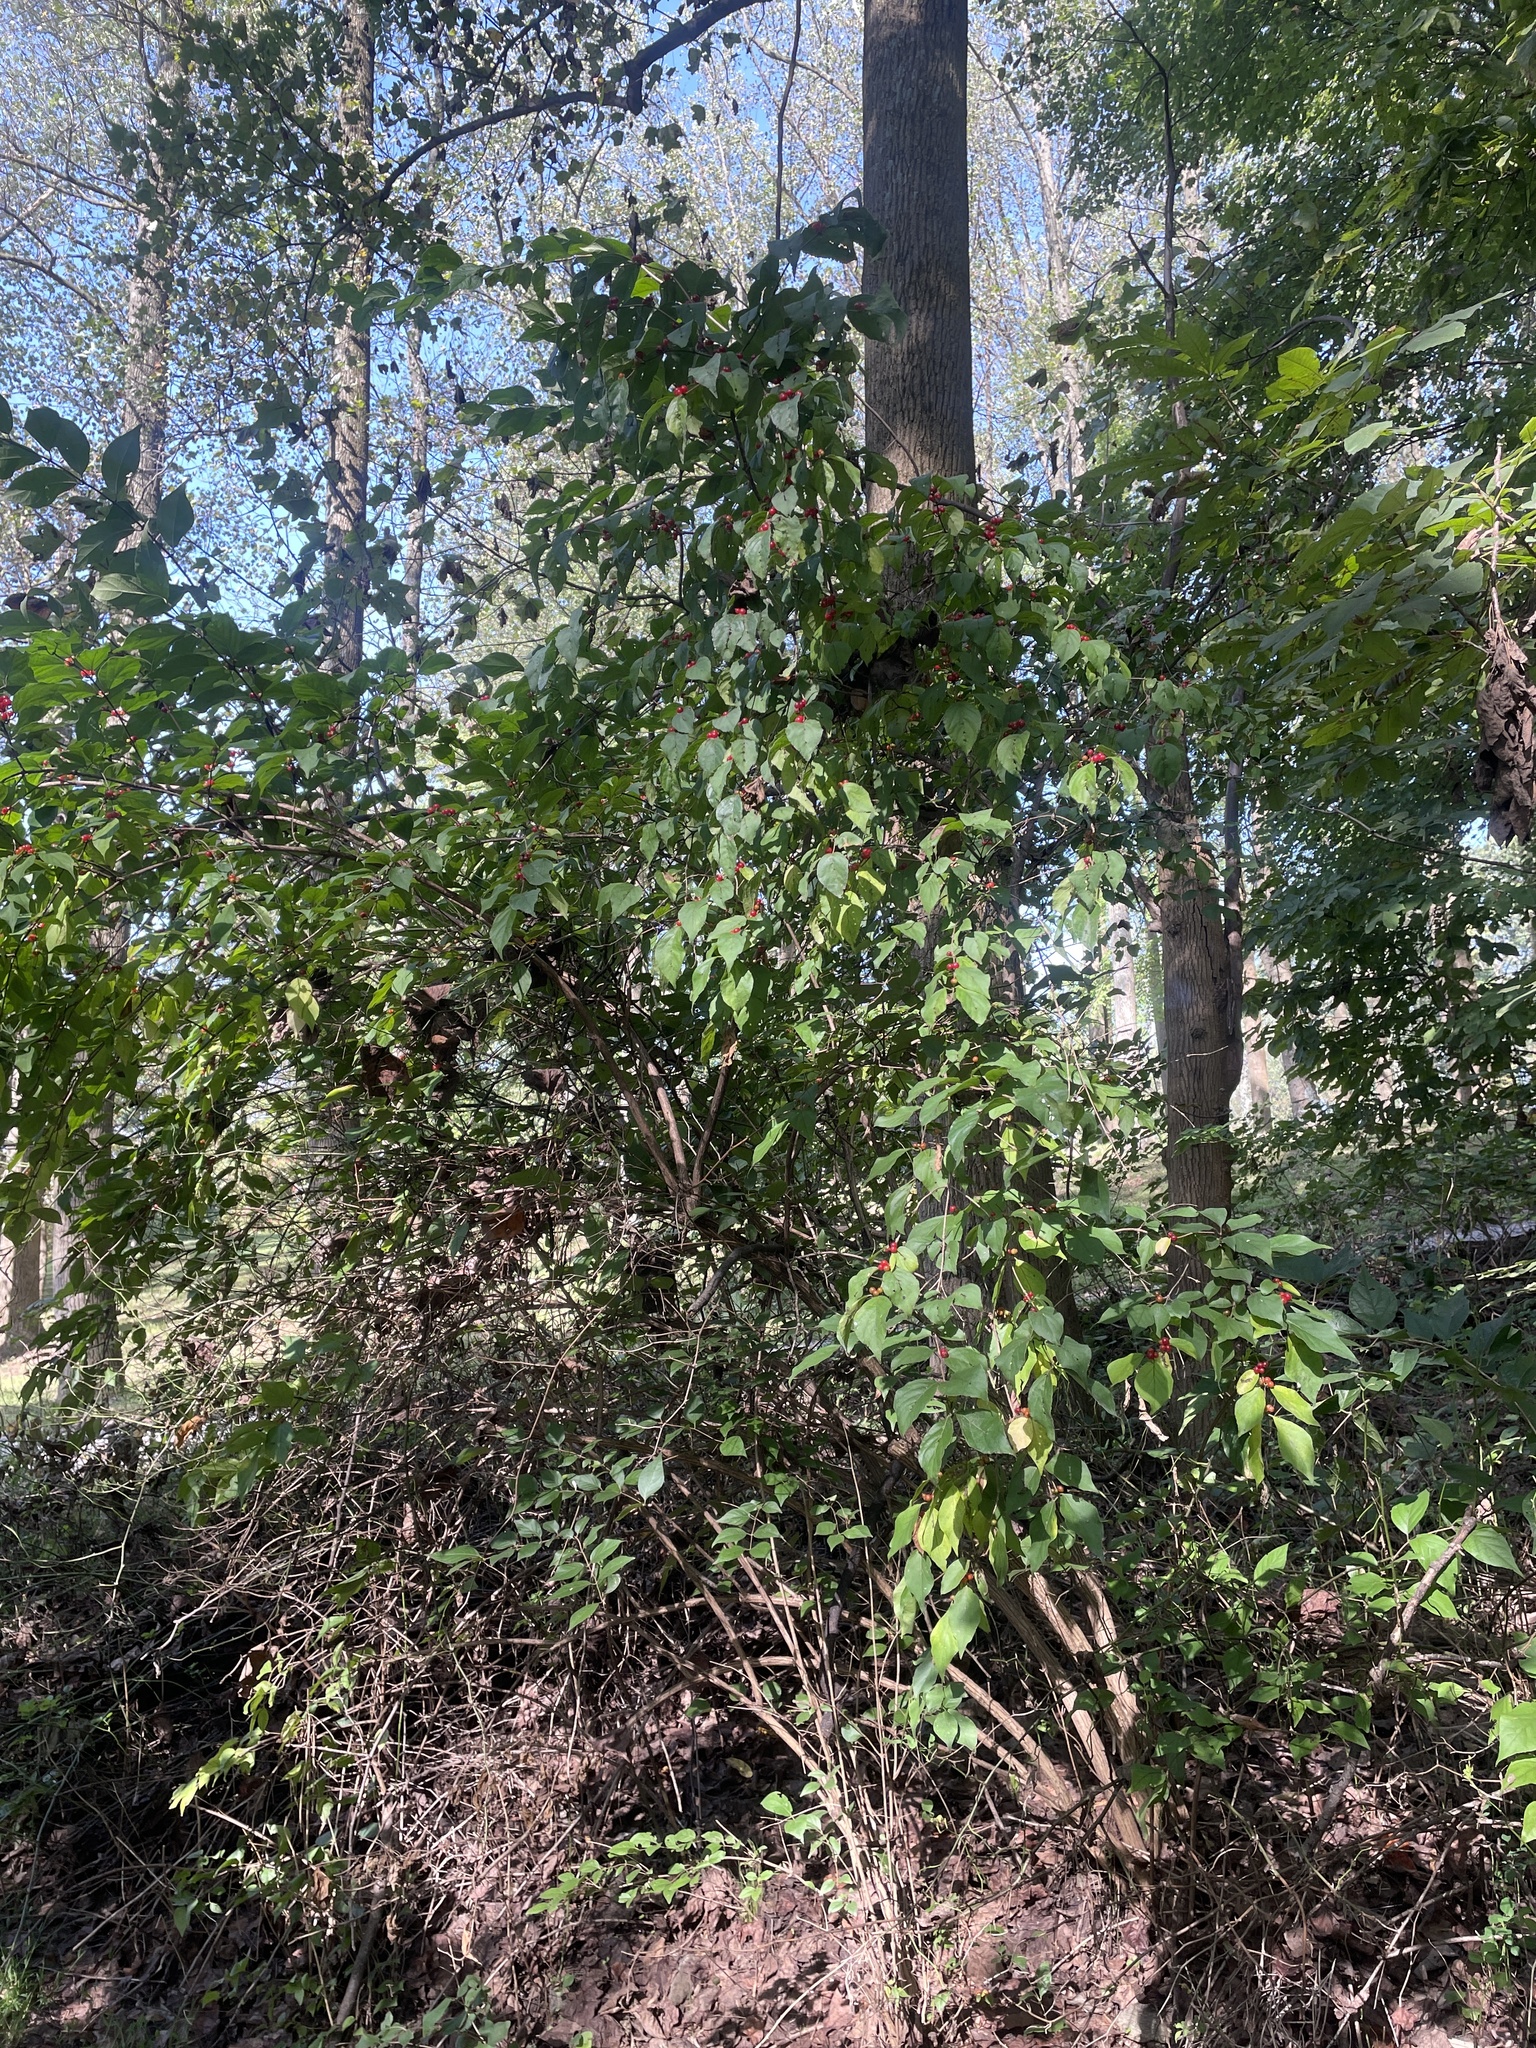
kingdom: Plantae
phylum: Tracheophyta
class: Magnoliopsida
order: Dipsacales
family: Caprifoliaceae
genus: Lonicera
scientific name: Lonicera maackii
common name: Amur honeysuckle
